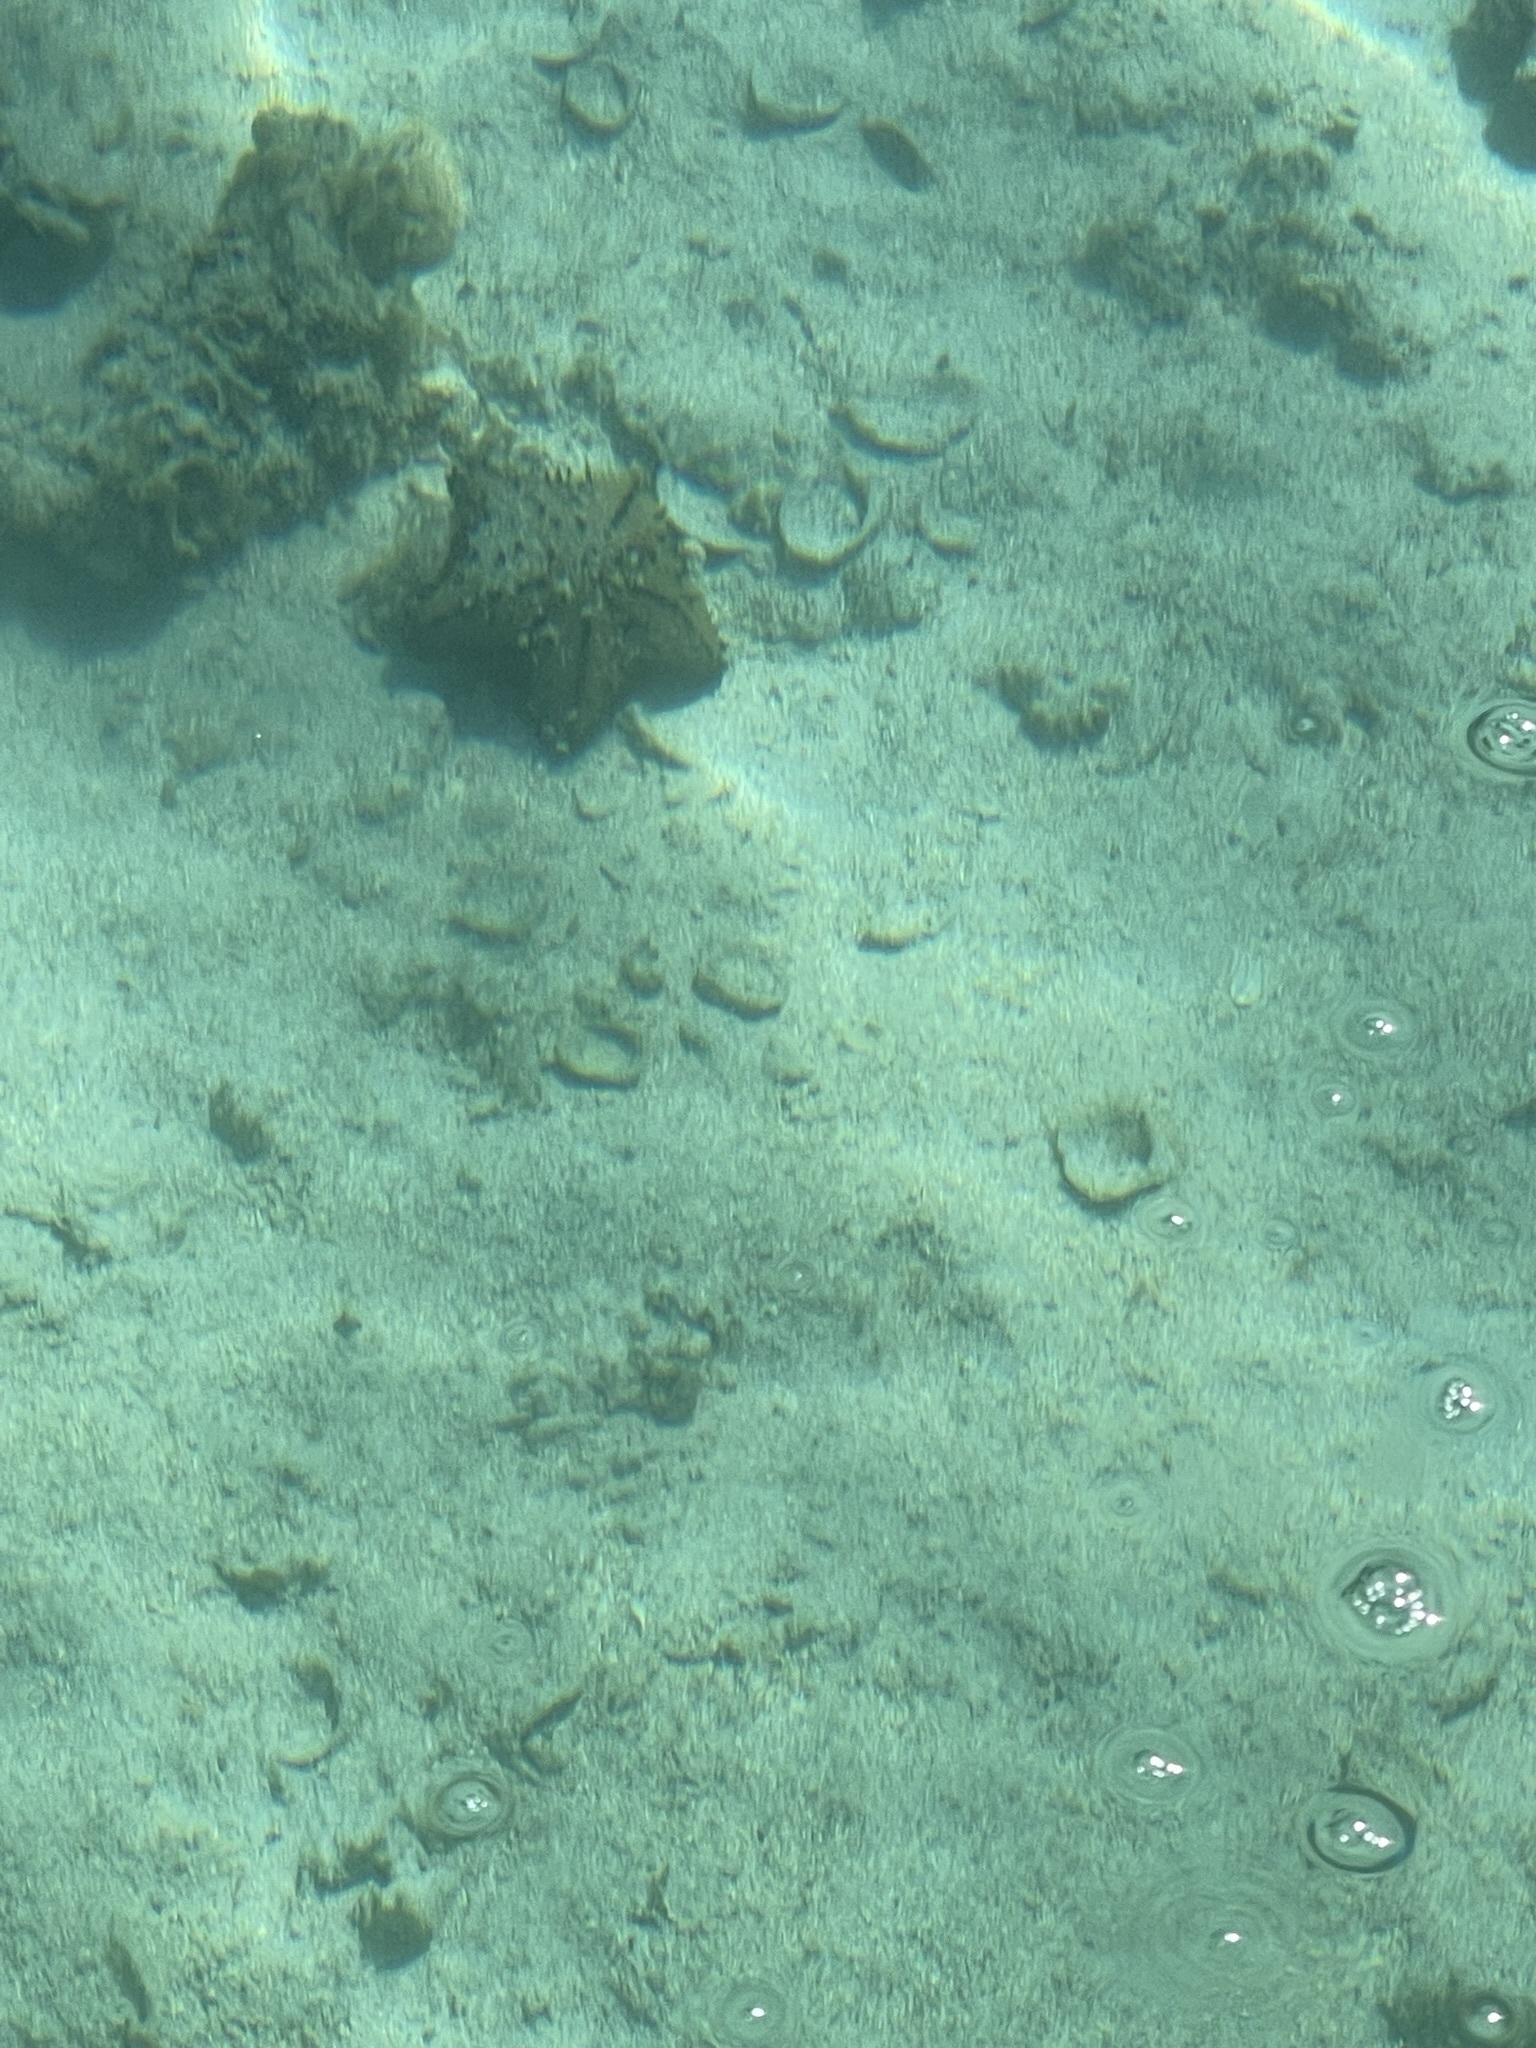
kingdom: Animalia
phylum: Echinodermata
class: Asteroidea
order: Valvatida
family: Oreasteridae
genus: Nidorellia
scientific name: Nidorellia armata
